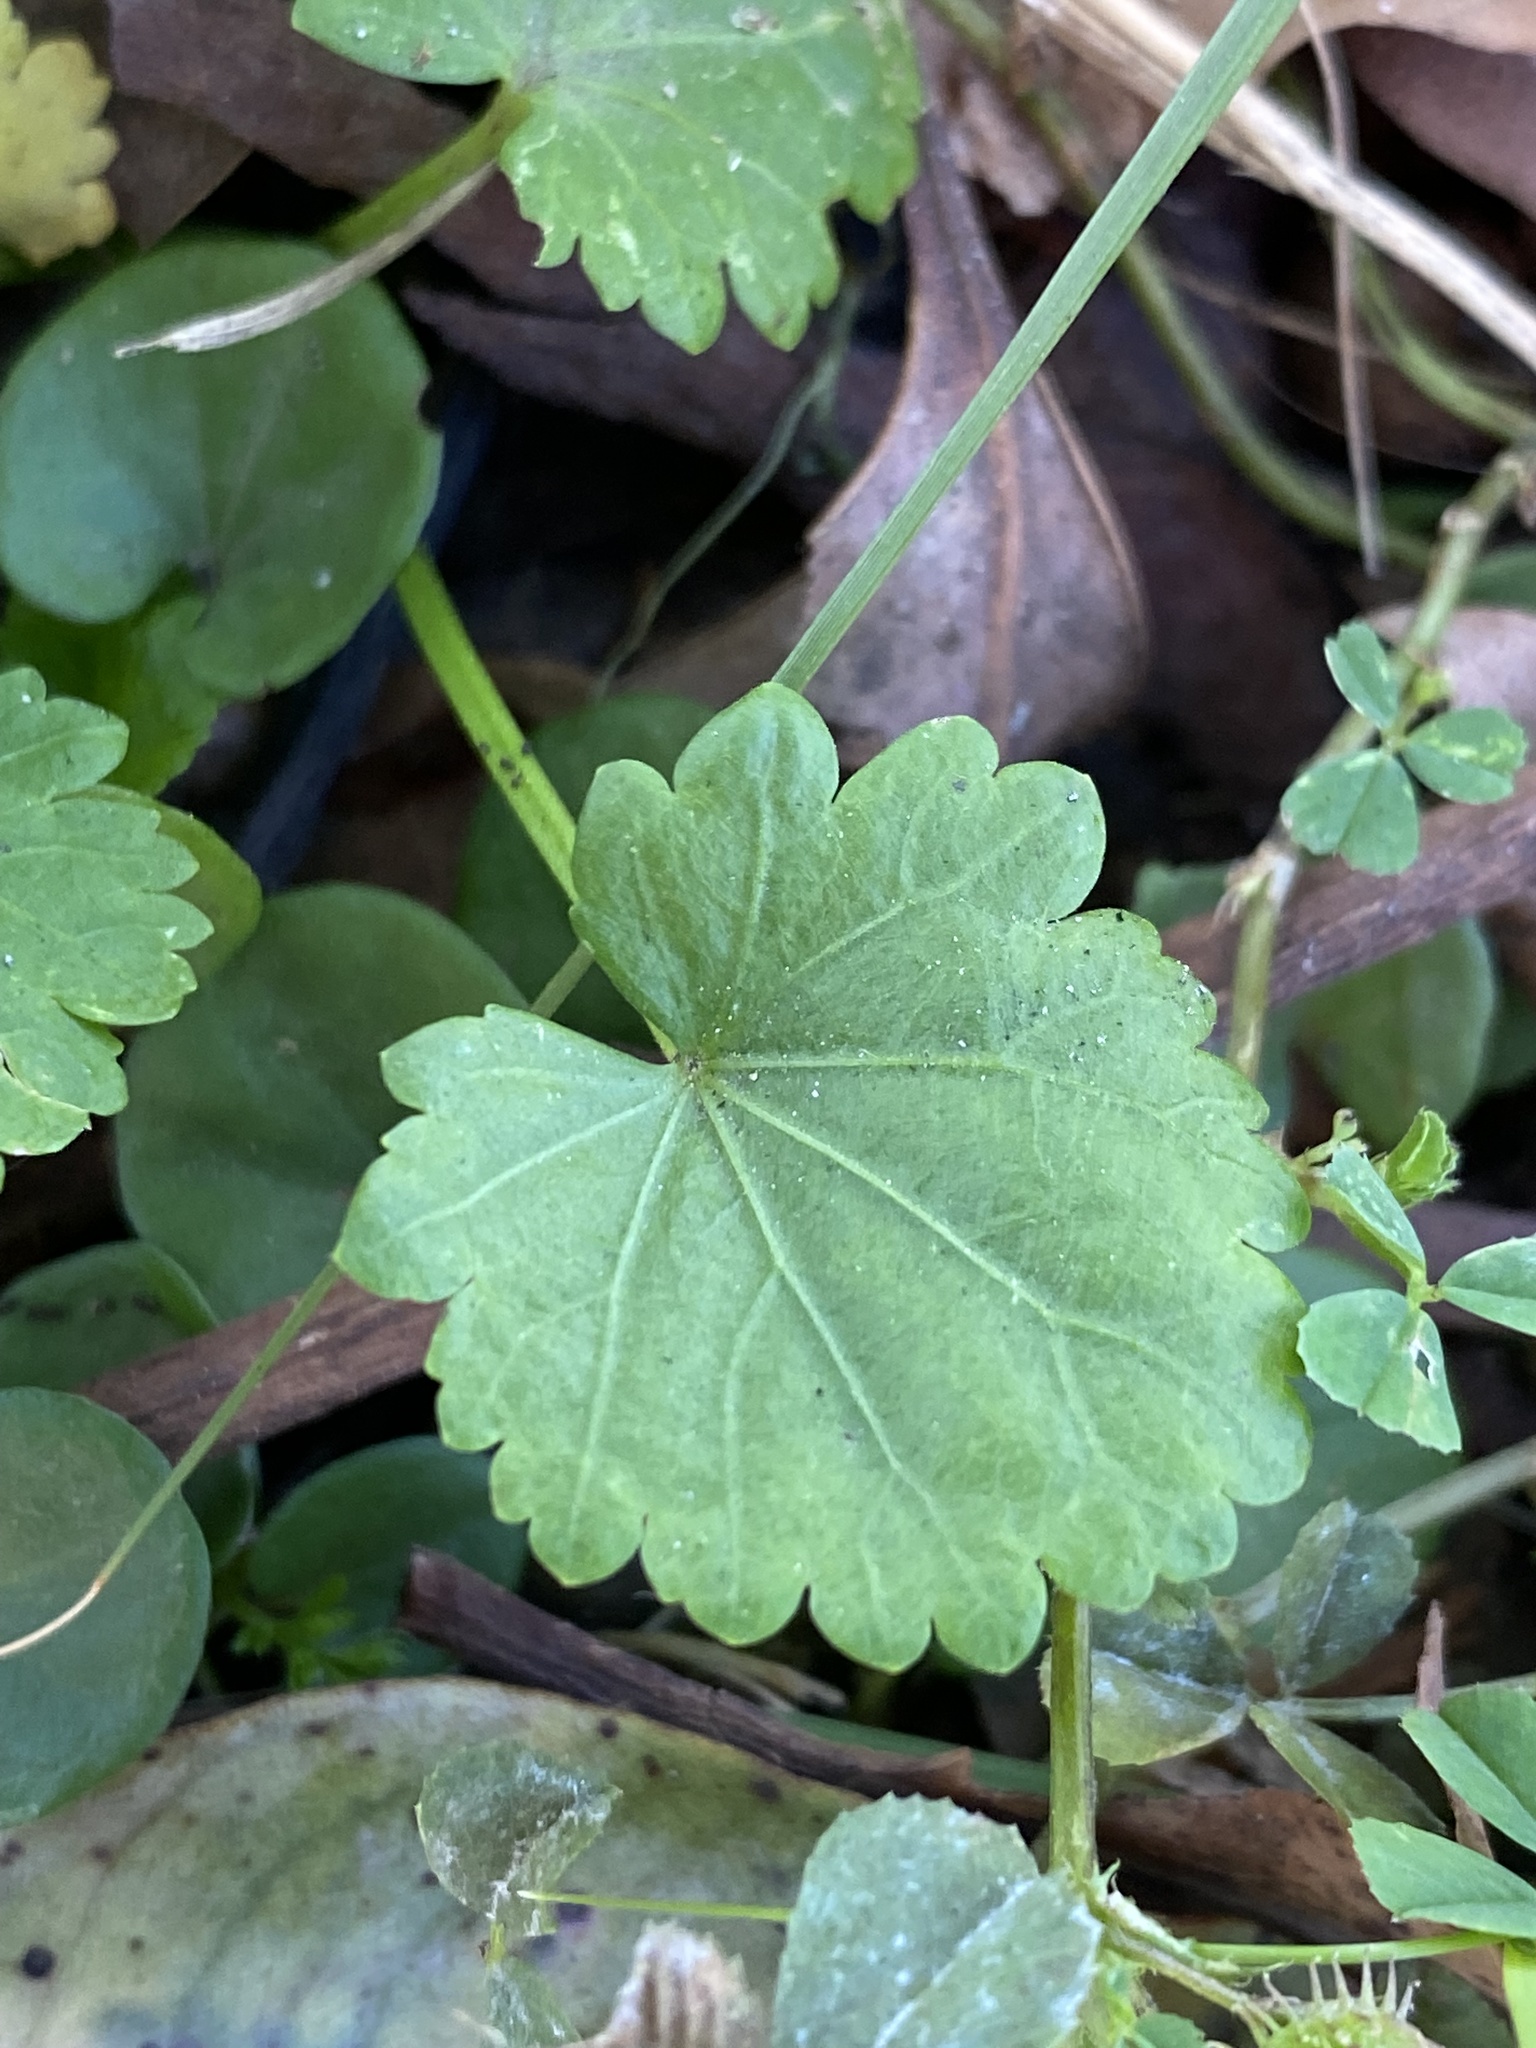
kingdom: Plantae
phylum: Tracheophyta
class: Magnoliopsida
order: Malvales
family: Malvaceae
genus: Modiola
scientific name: Modiola caroliniana
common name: Carolina bristlemallow
